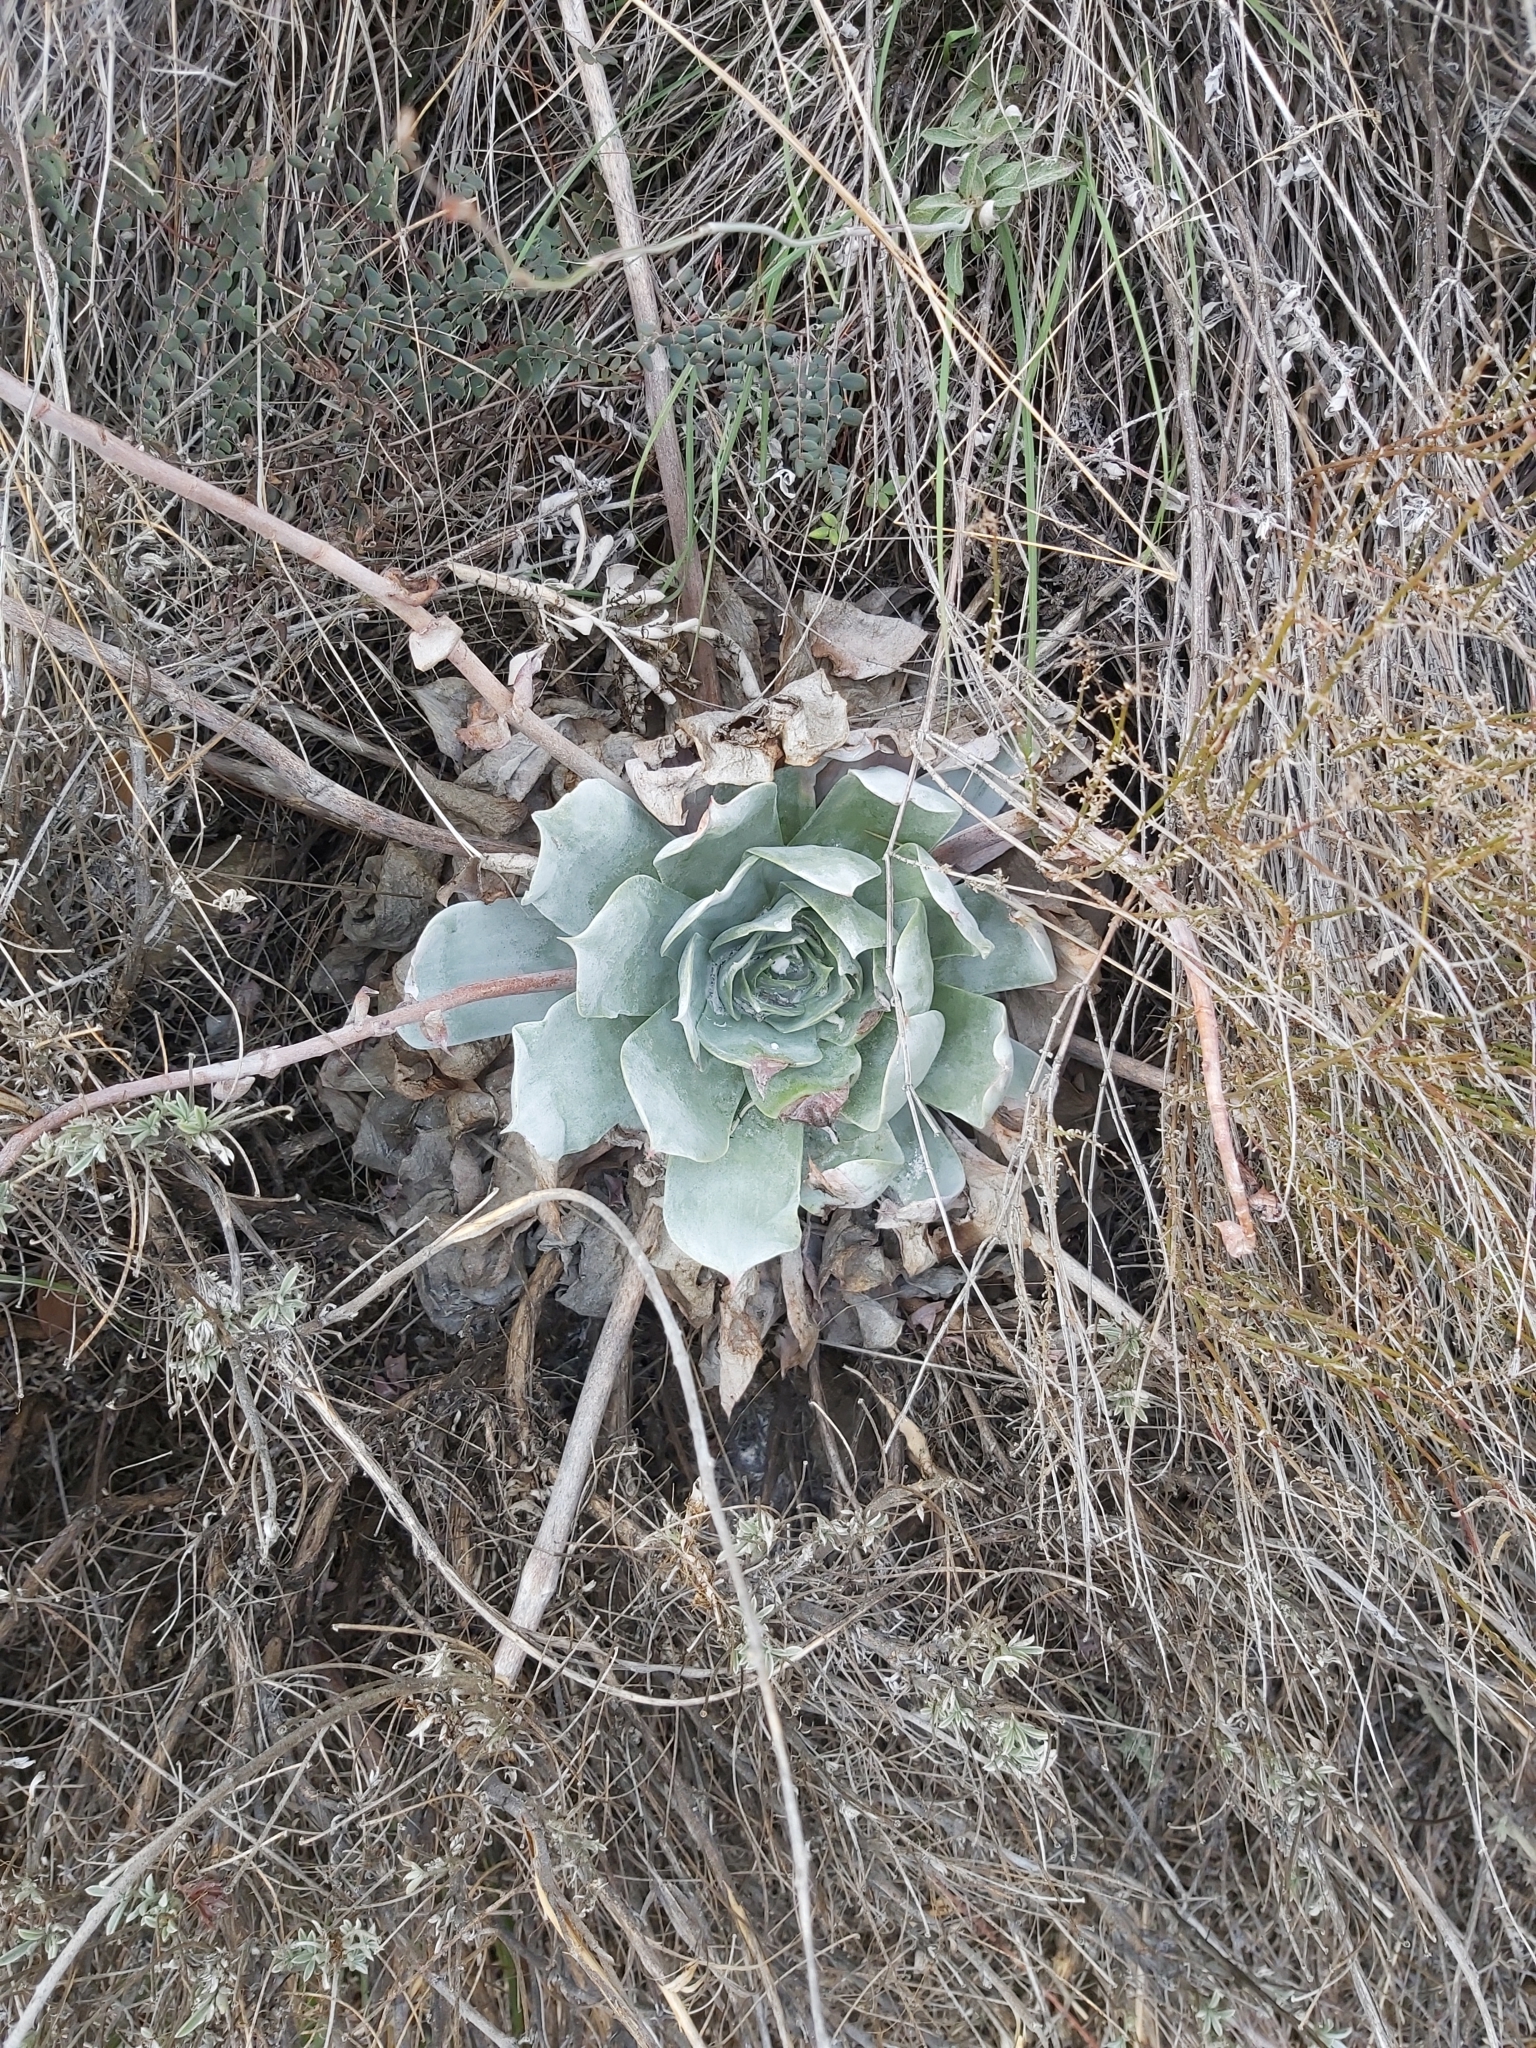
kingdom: Plantae
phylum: Tracheophyta
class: Magnoliopsida
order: Saxifragales
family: Crassulaceae
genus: Dudleya
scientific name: Dudleya pulverulenta
